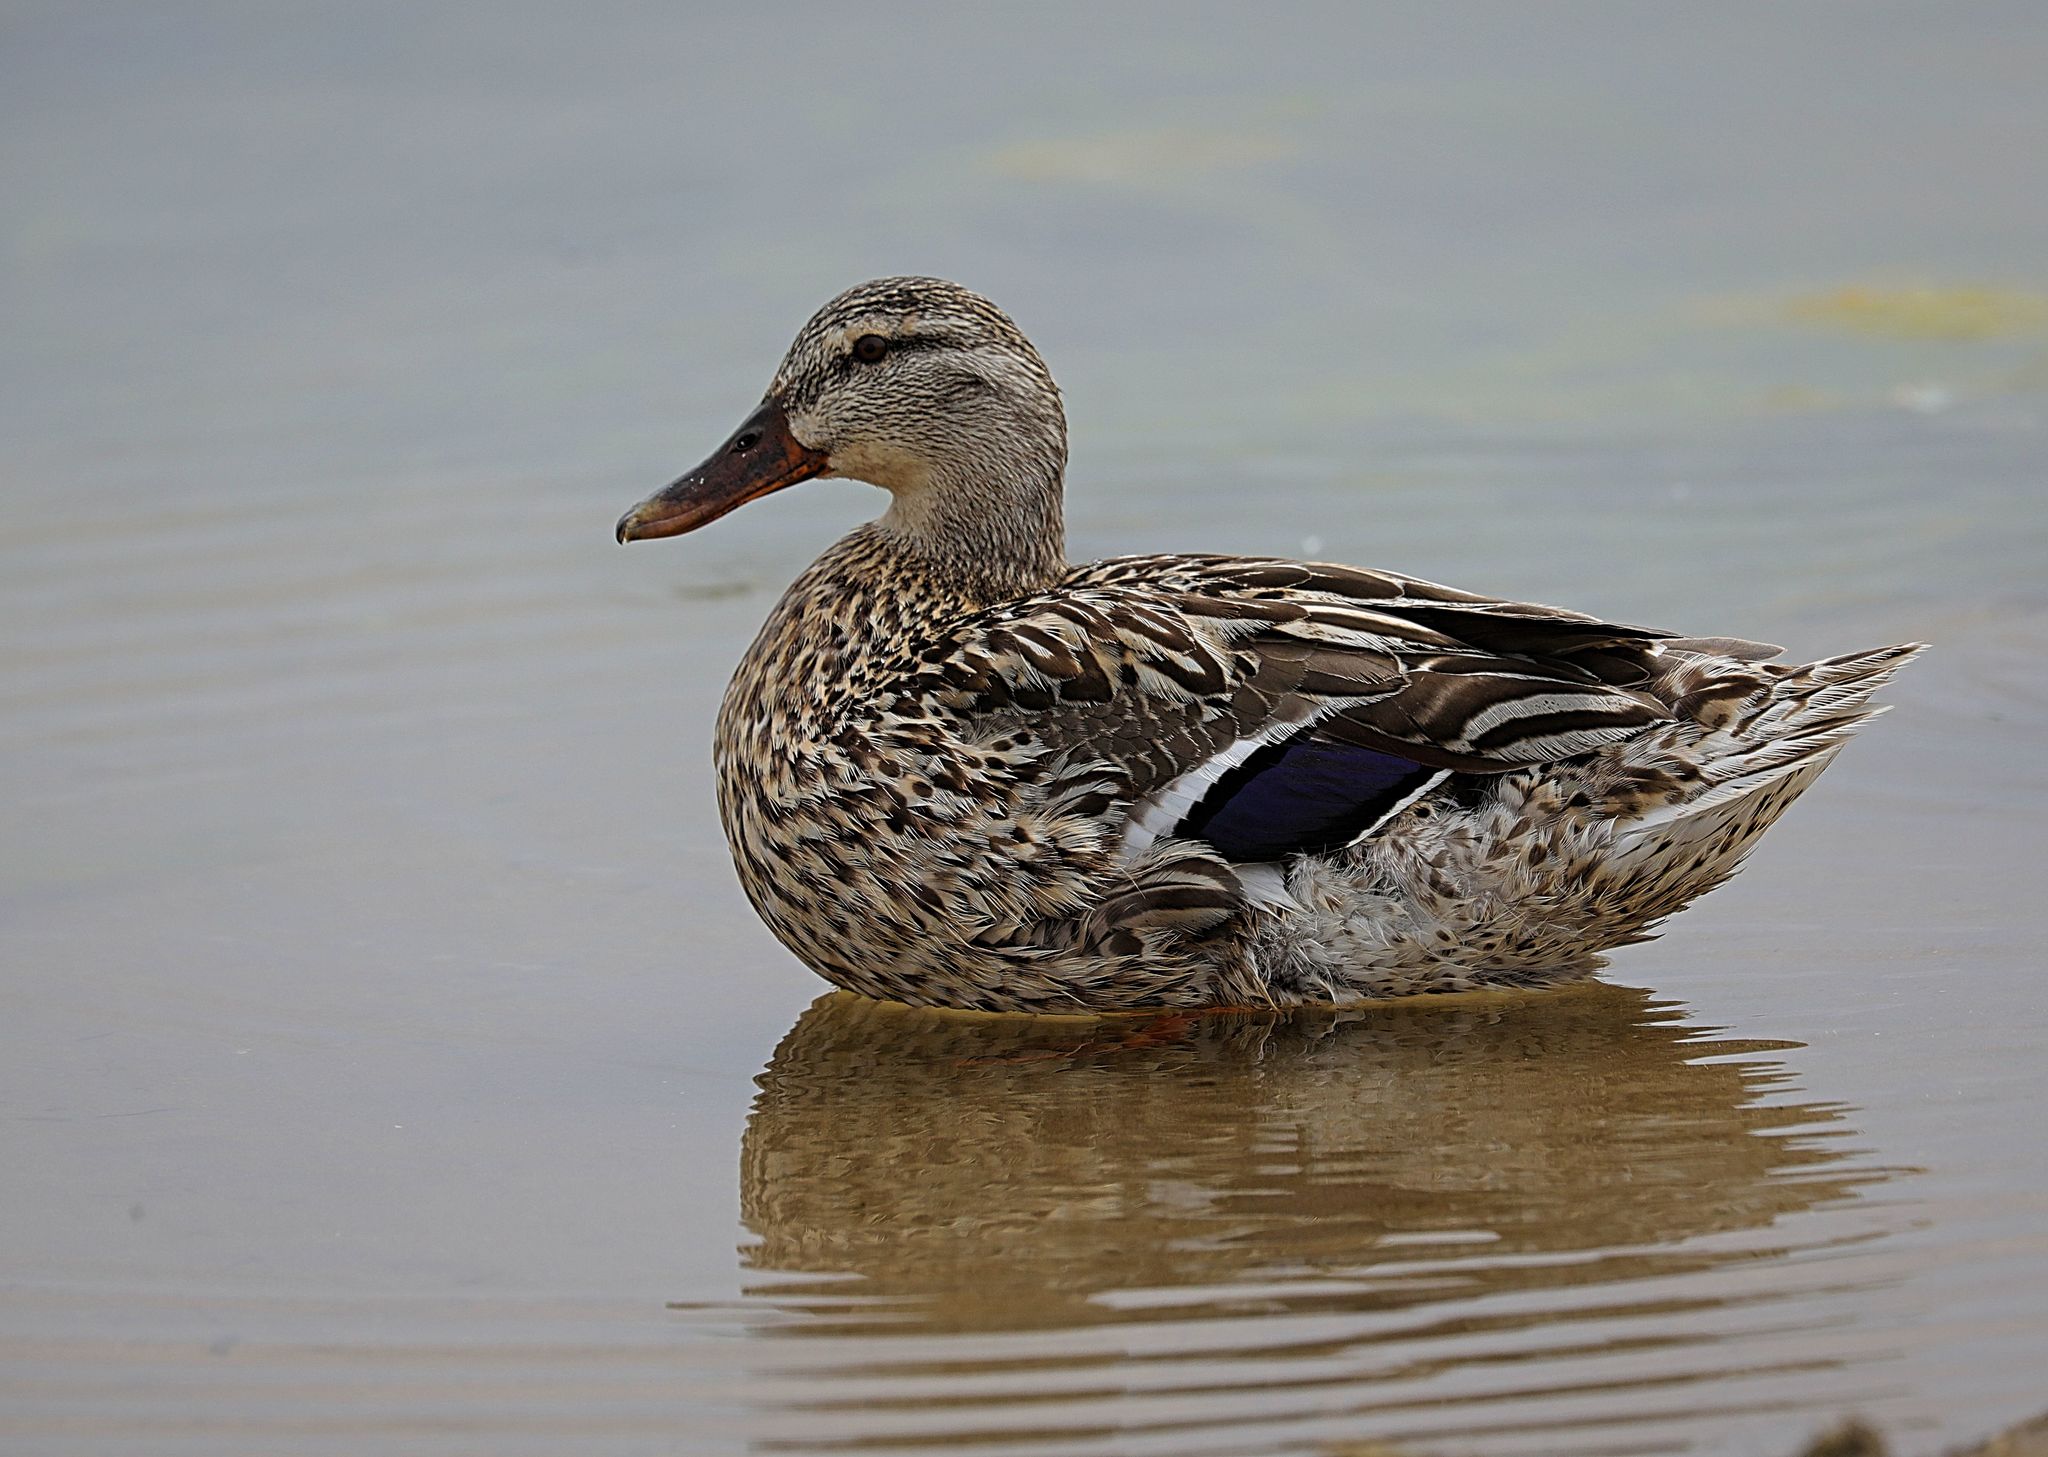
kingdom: Animalia
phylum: Chordata
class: Aves
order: Anseriformes
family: Anatidae
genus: Anas
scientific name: Anas platyrhynchos
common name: Mallard
